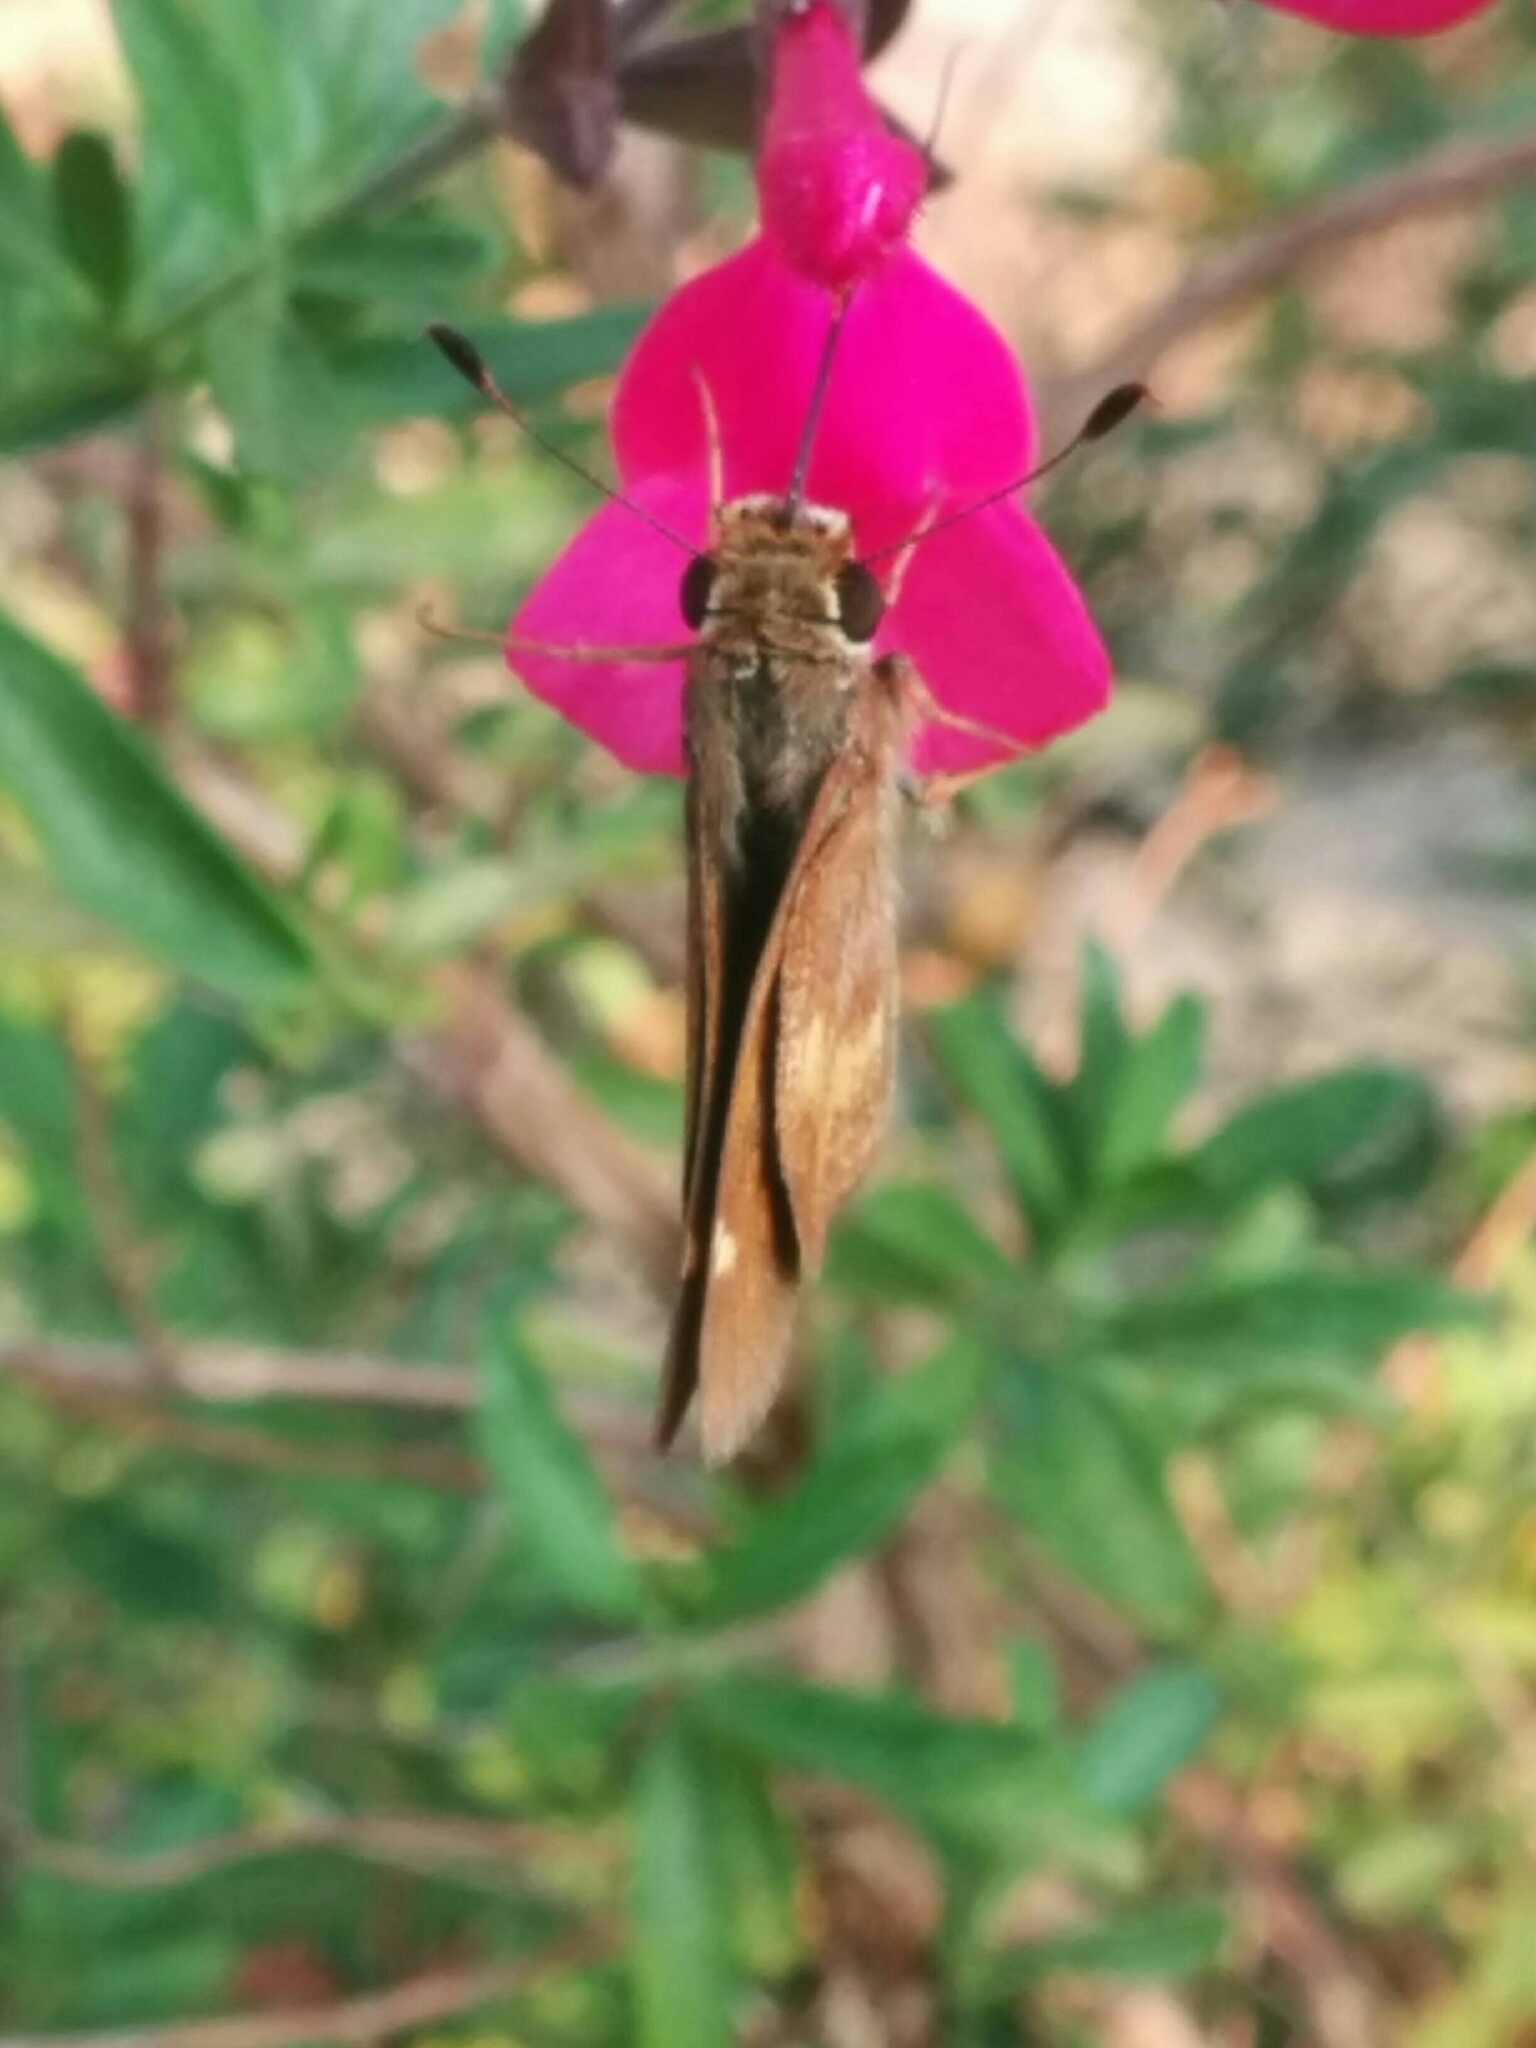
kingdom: Animalia
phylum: Arthropoda
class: Insecta
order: Lepidoptera
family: Hesperiidae
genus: Lon
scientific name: Lon melane
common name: Umber skipper
